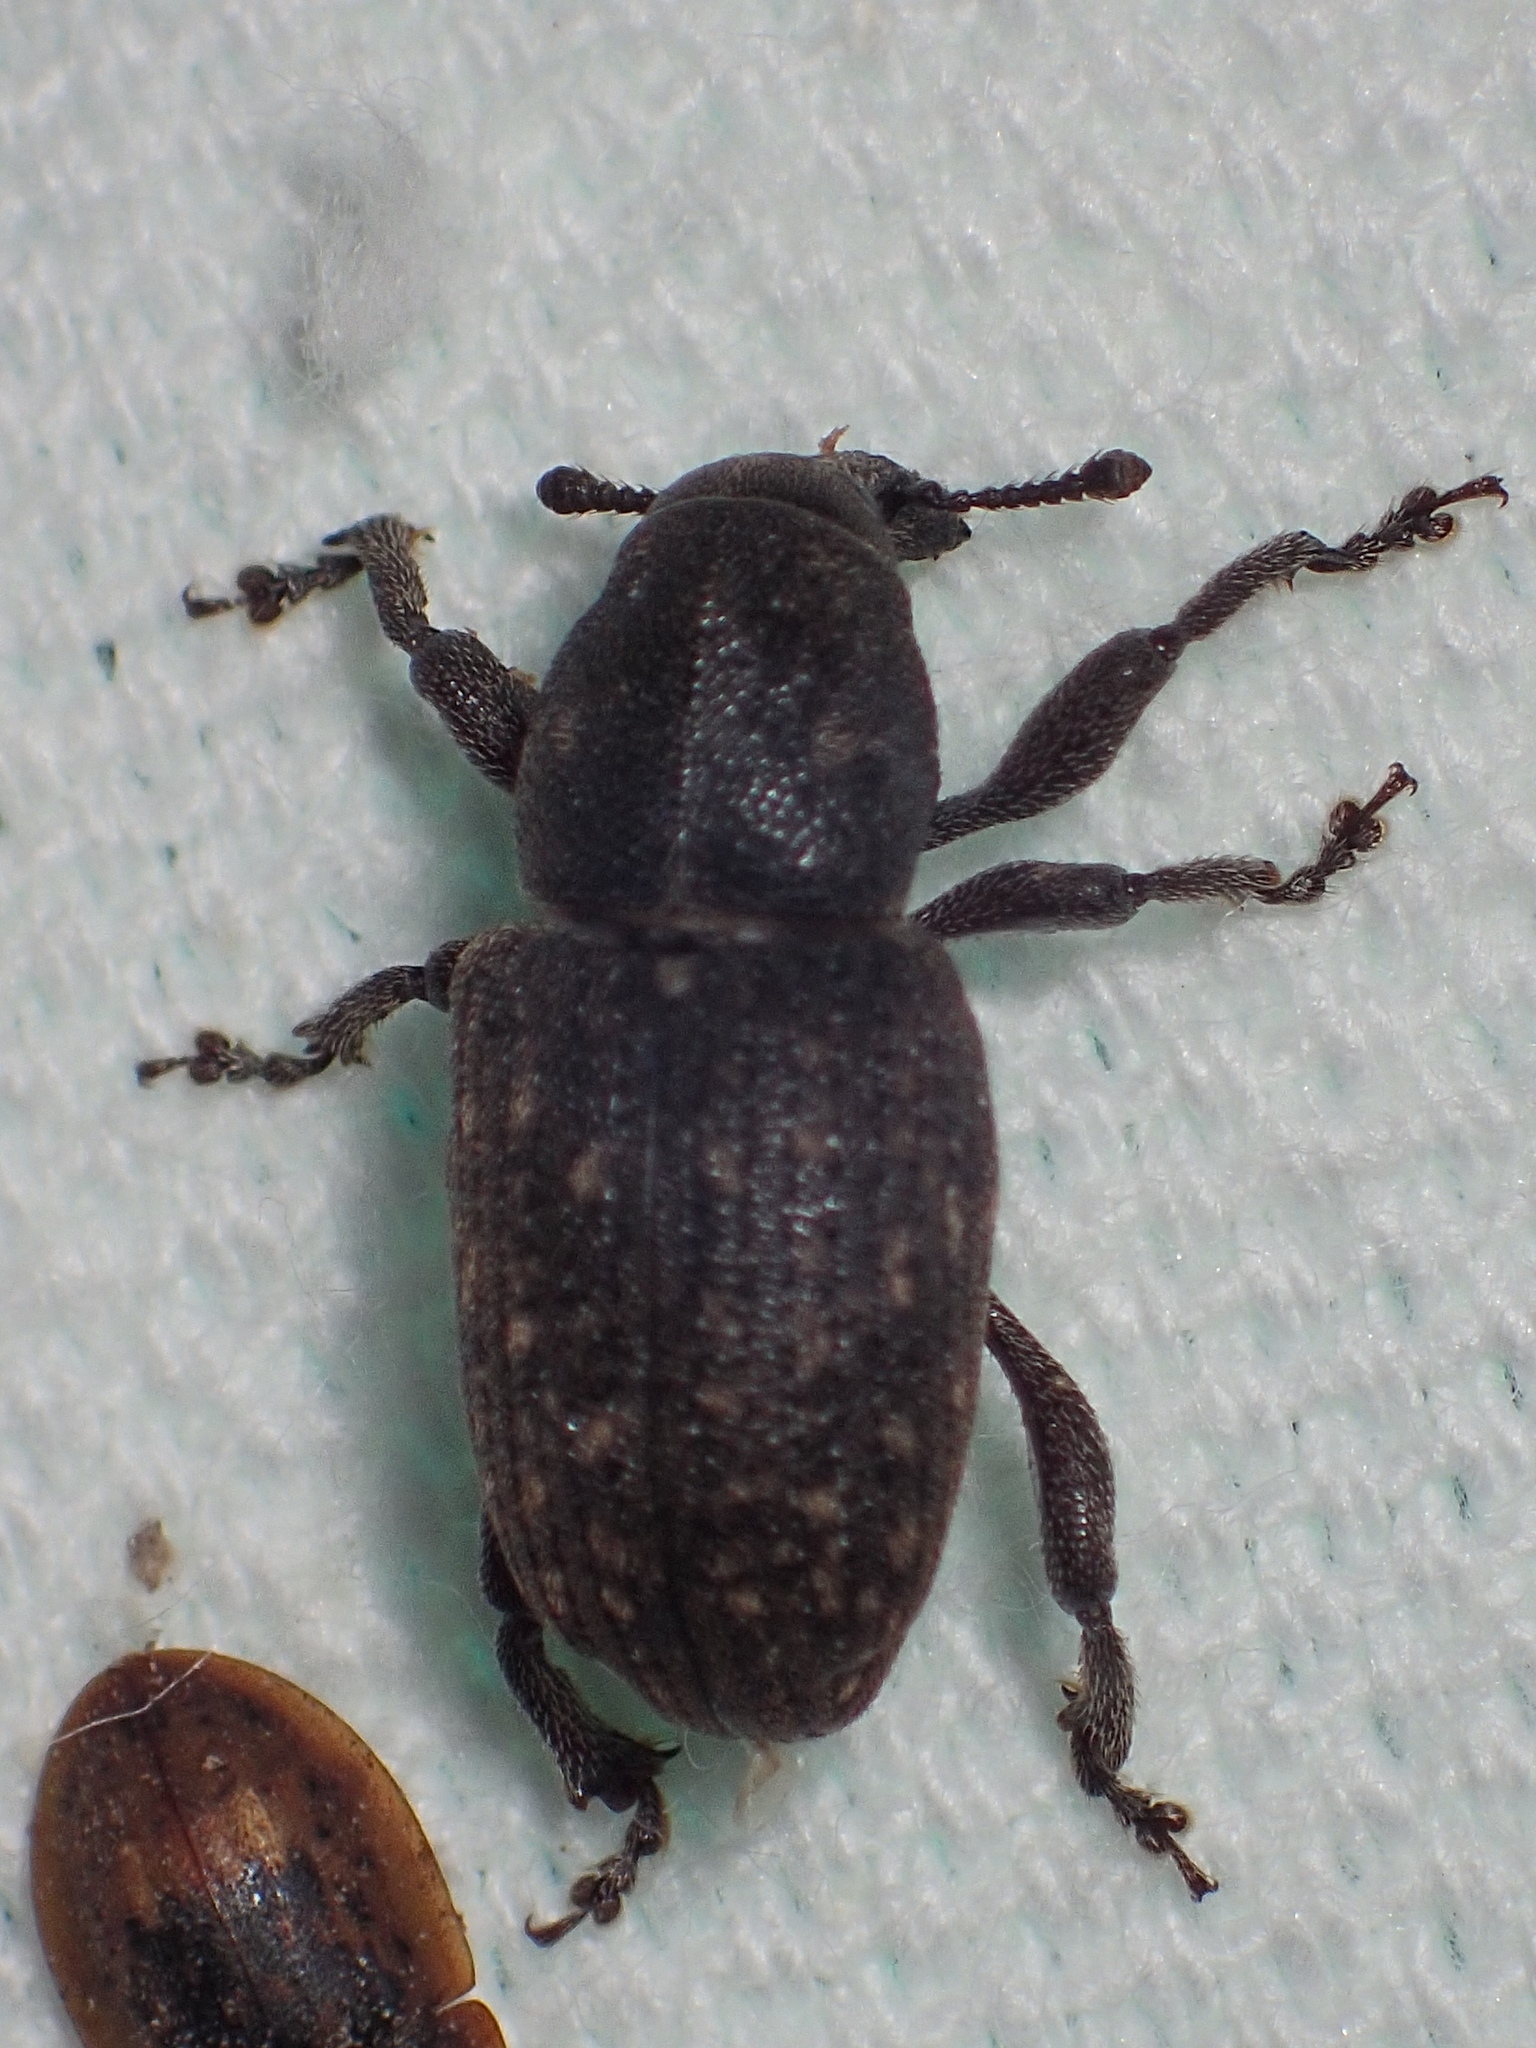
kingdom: Animalia
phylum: Arthropoda
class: Insecta
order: Coleoptera
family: Curculionidae
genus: Pachylobius
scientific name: Pachylobius picivorus
